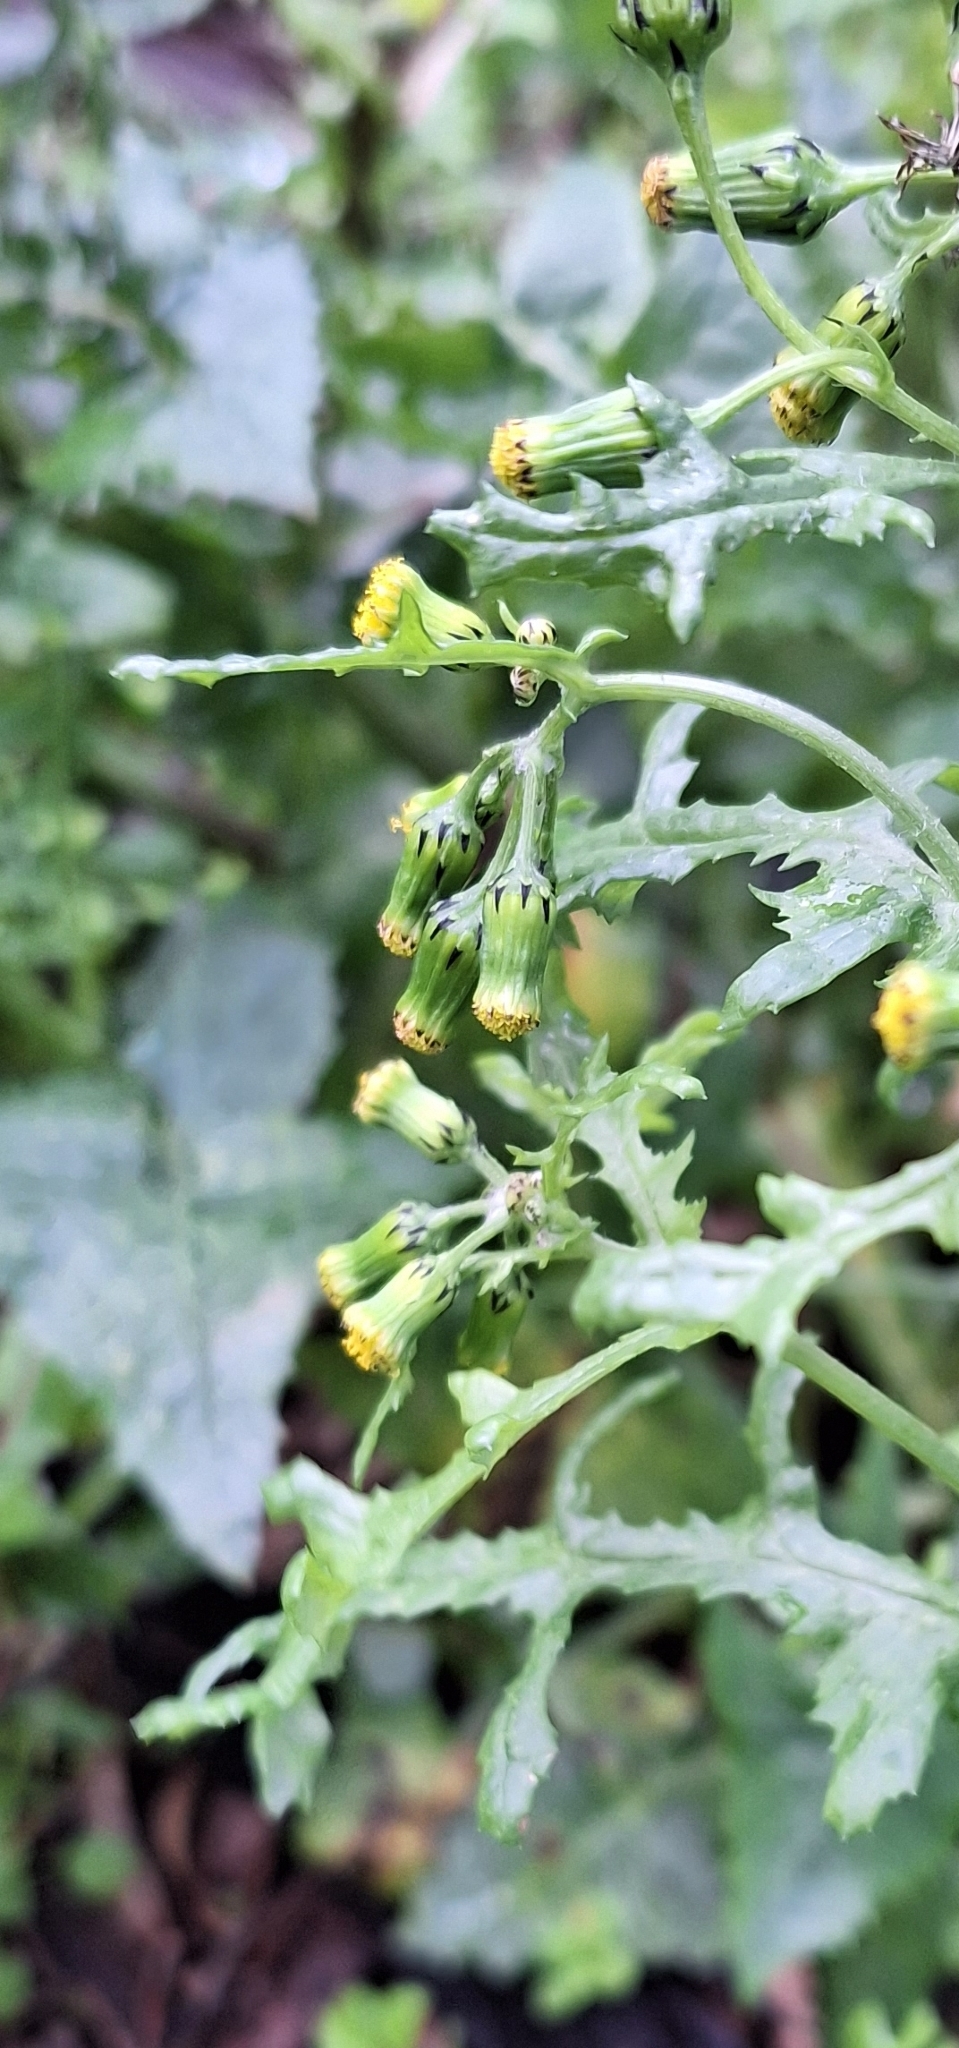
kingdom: Plantae
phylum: Tracheophyta
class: Magnoliopsida
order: Asterales
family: Asteraceae
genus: Senecio
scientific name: Senecio vulgaris
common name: Old-man-in-the-spring
